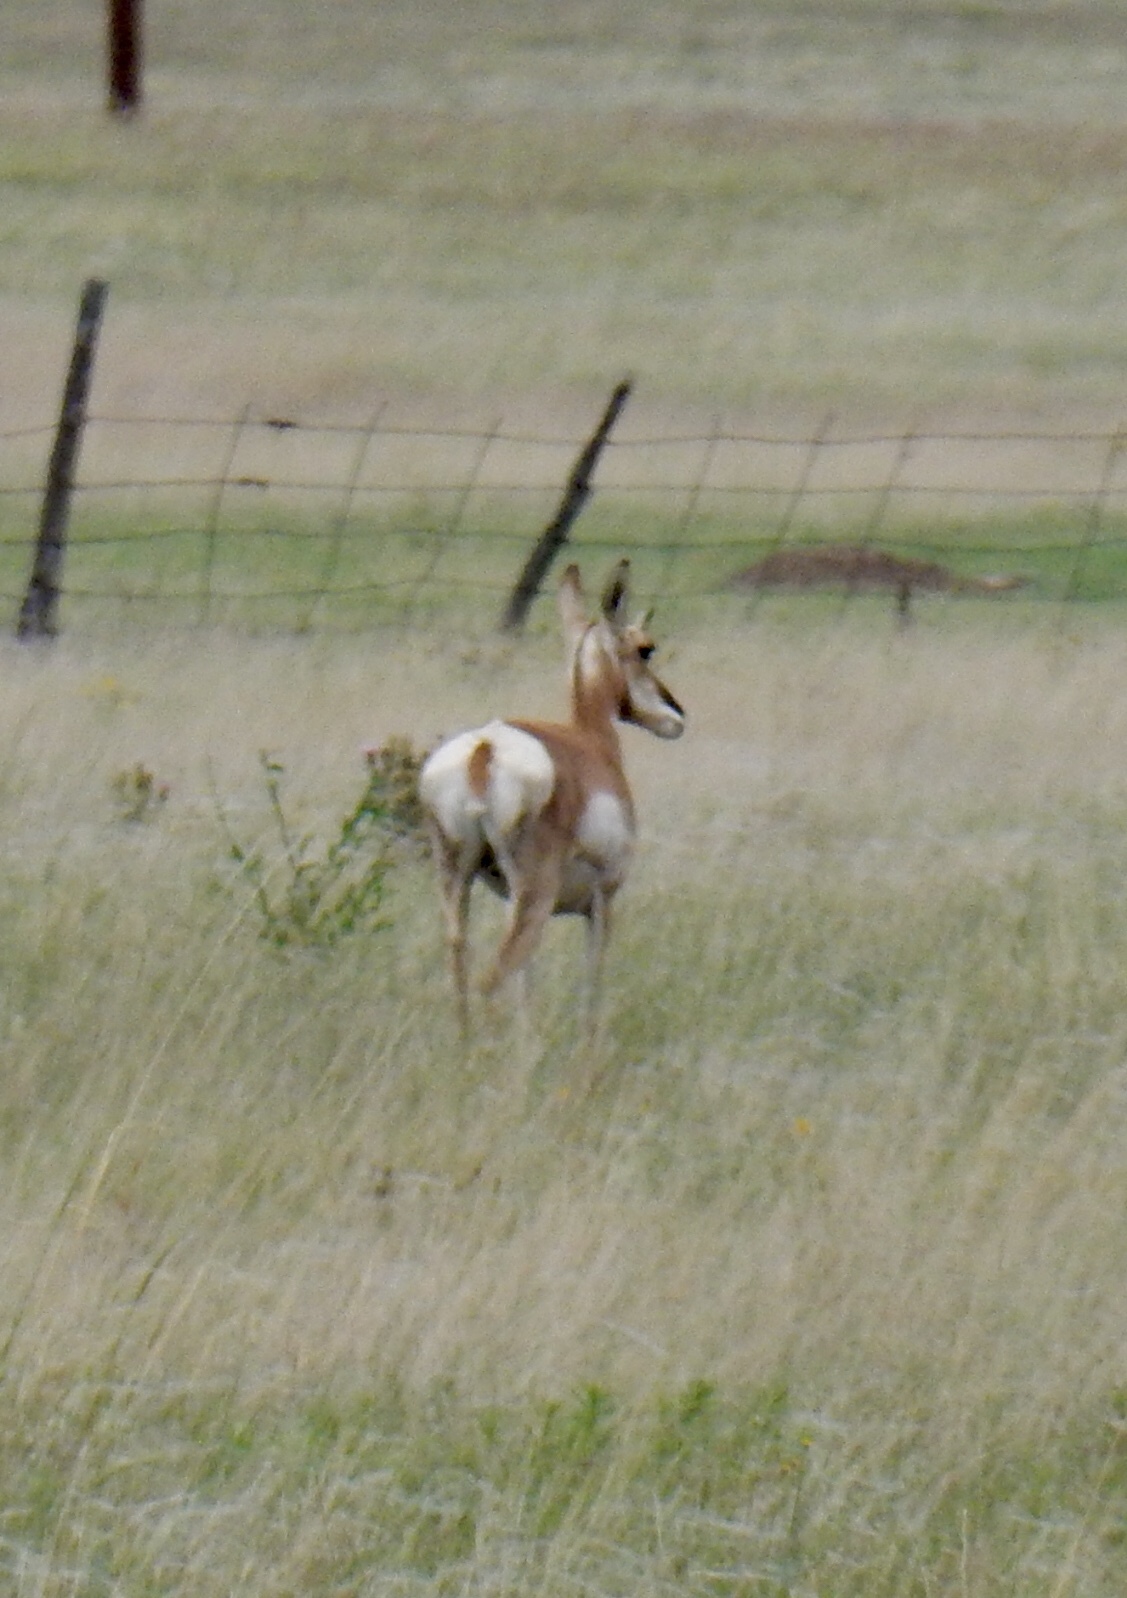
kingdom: Animalia
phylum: Chordata
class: Mammalia
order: Artiodactyla
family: Antilocapridae
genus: Antilocapra
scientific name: Antilocapra americana
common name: Pronghorn
